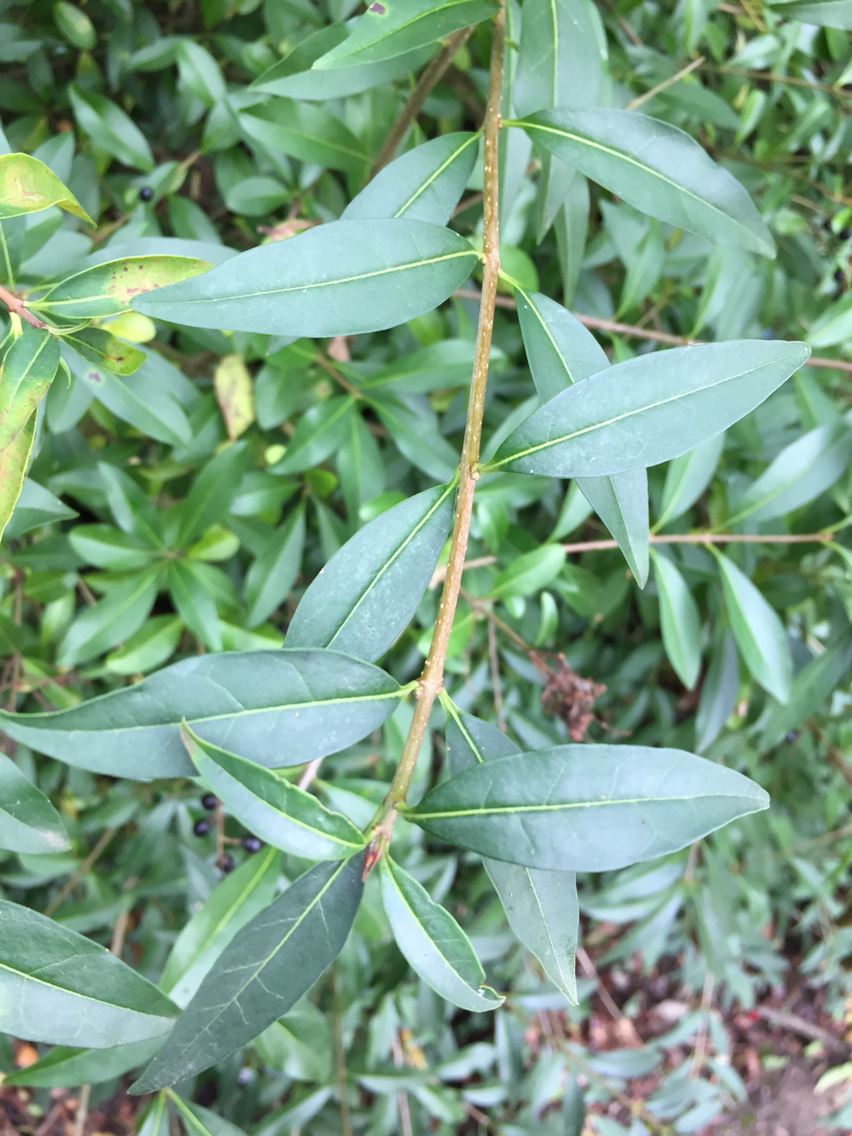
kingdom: Plantae
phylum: Tracheophyta
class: Magnoliopsida
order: Lamiales
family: Oleaceae
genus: Ligustrum
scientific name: Ligustrum vulgare
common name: Wild privet
